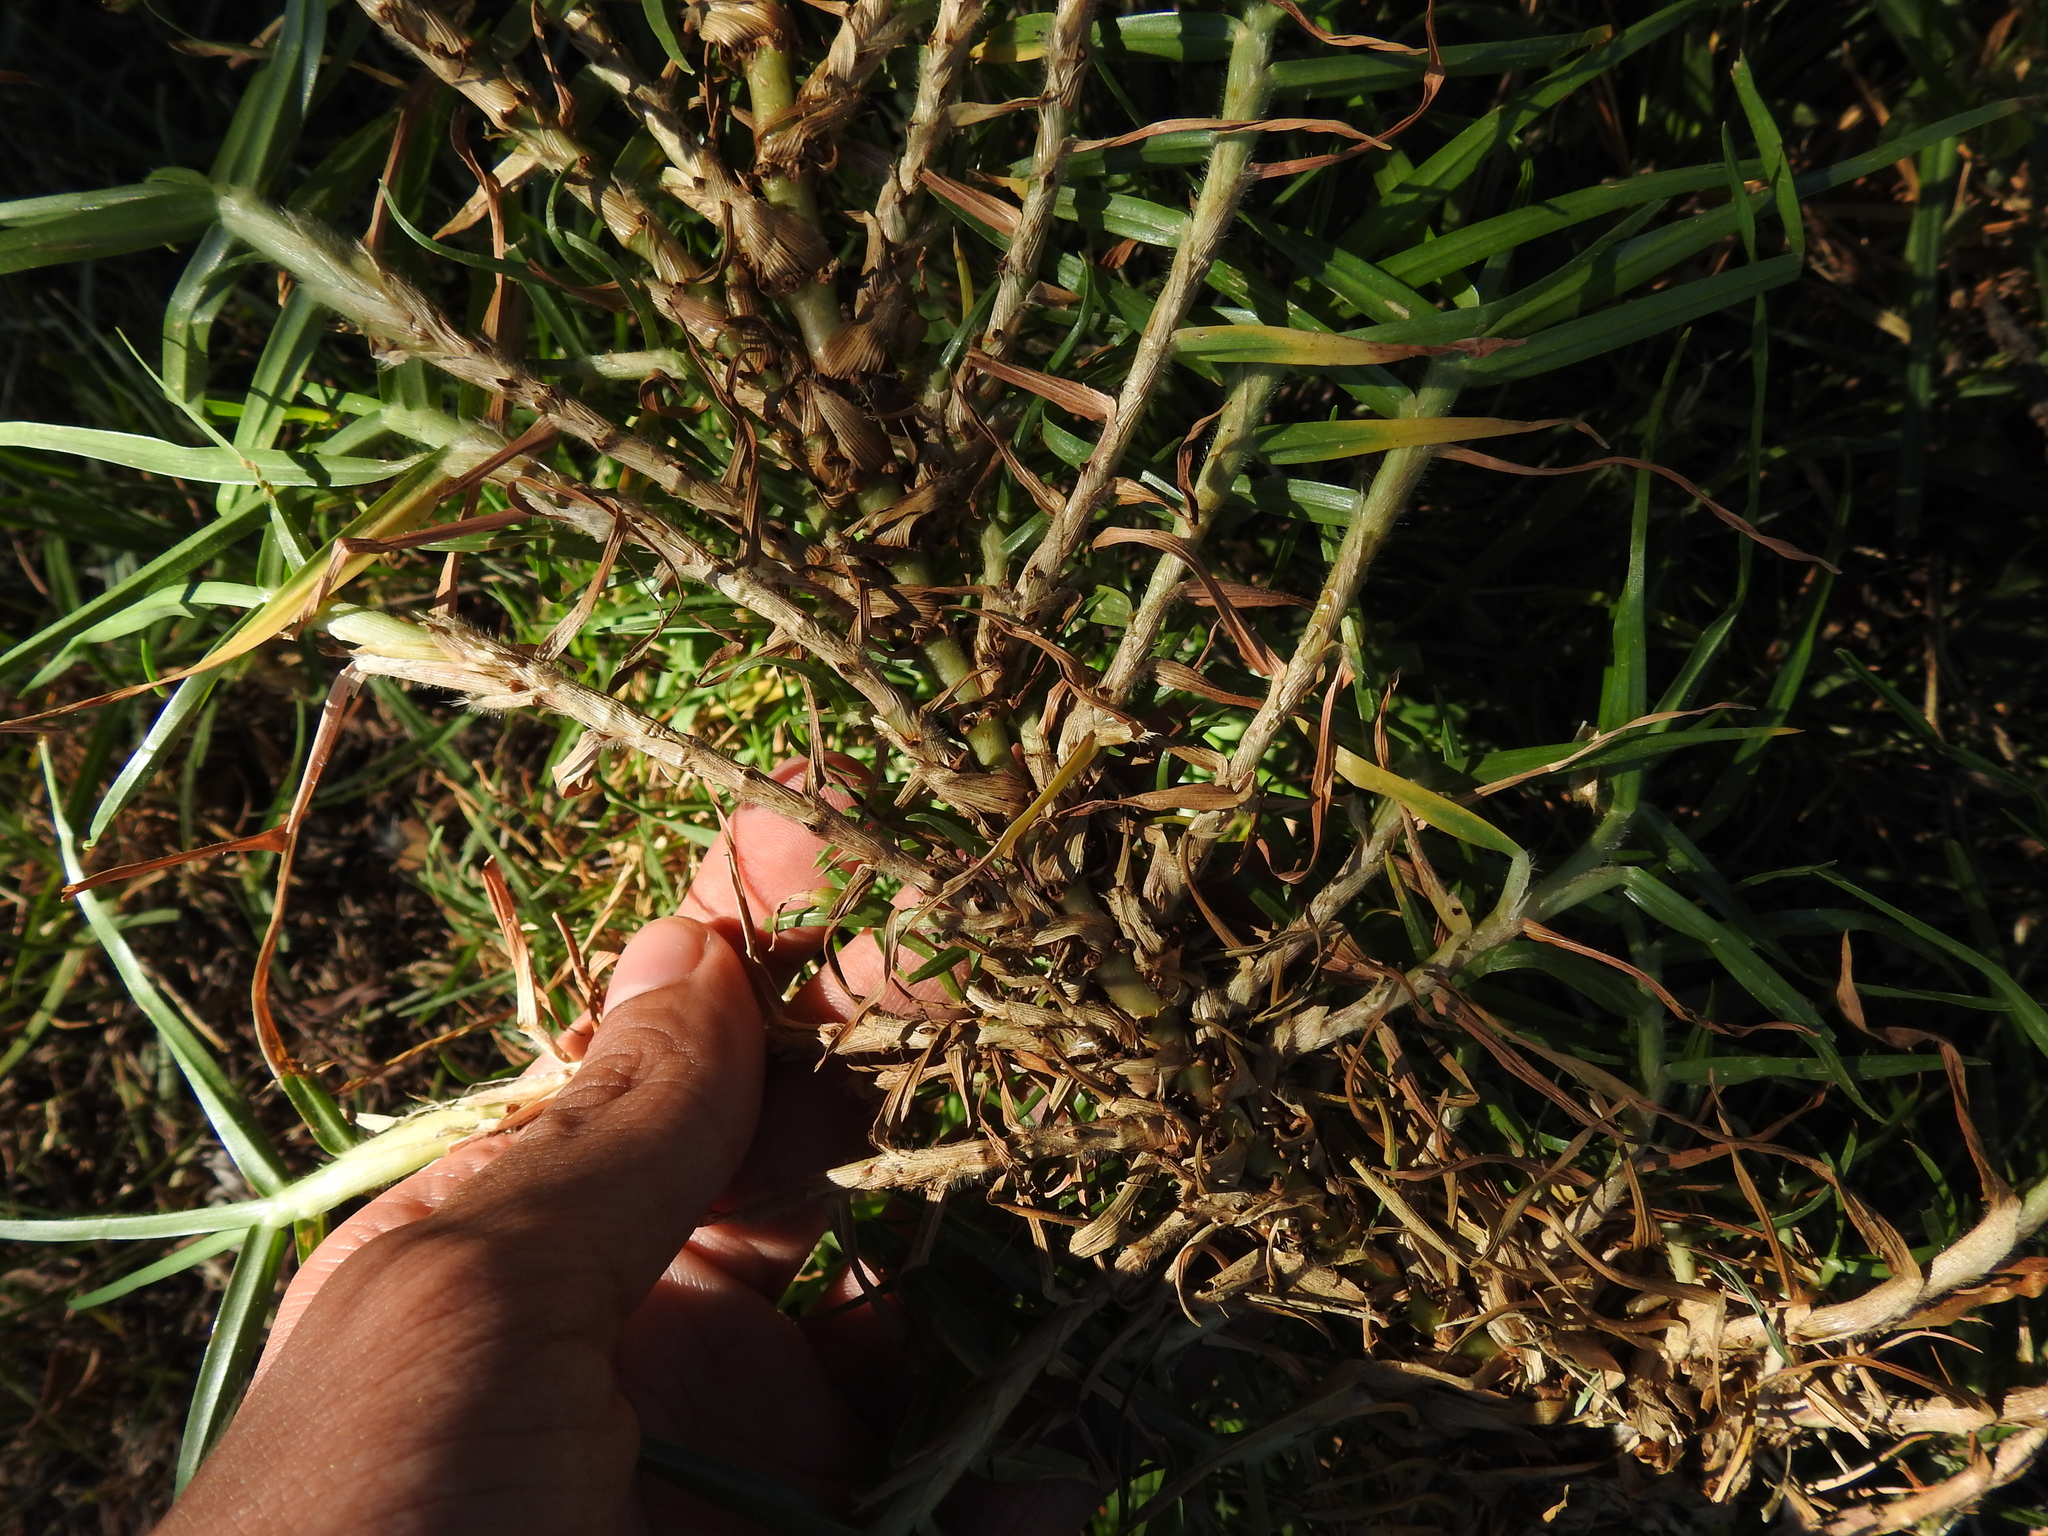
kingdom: Plantae
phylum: Tracheophyta
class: Liliopsida
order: Poales
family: Poaceae
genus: Cenchrus
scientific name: Cenchrus clandestinus
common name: Kikuyugrass
